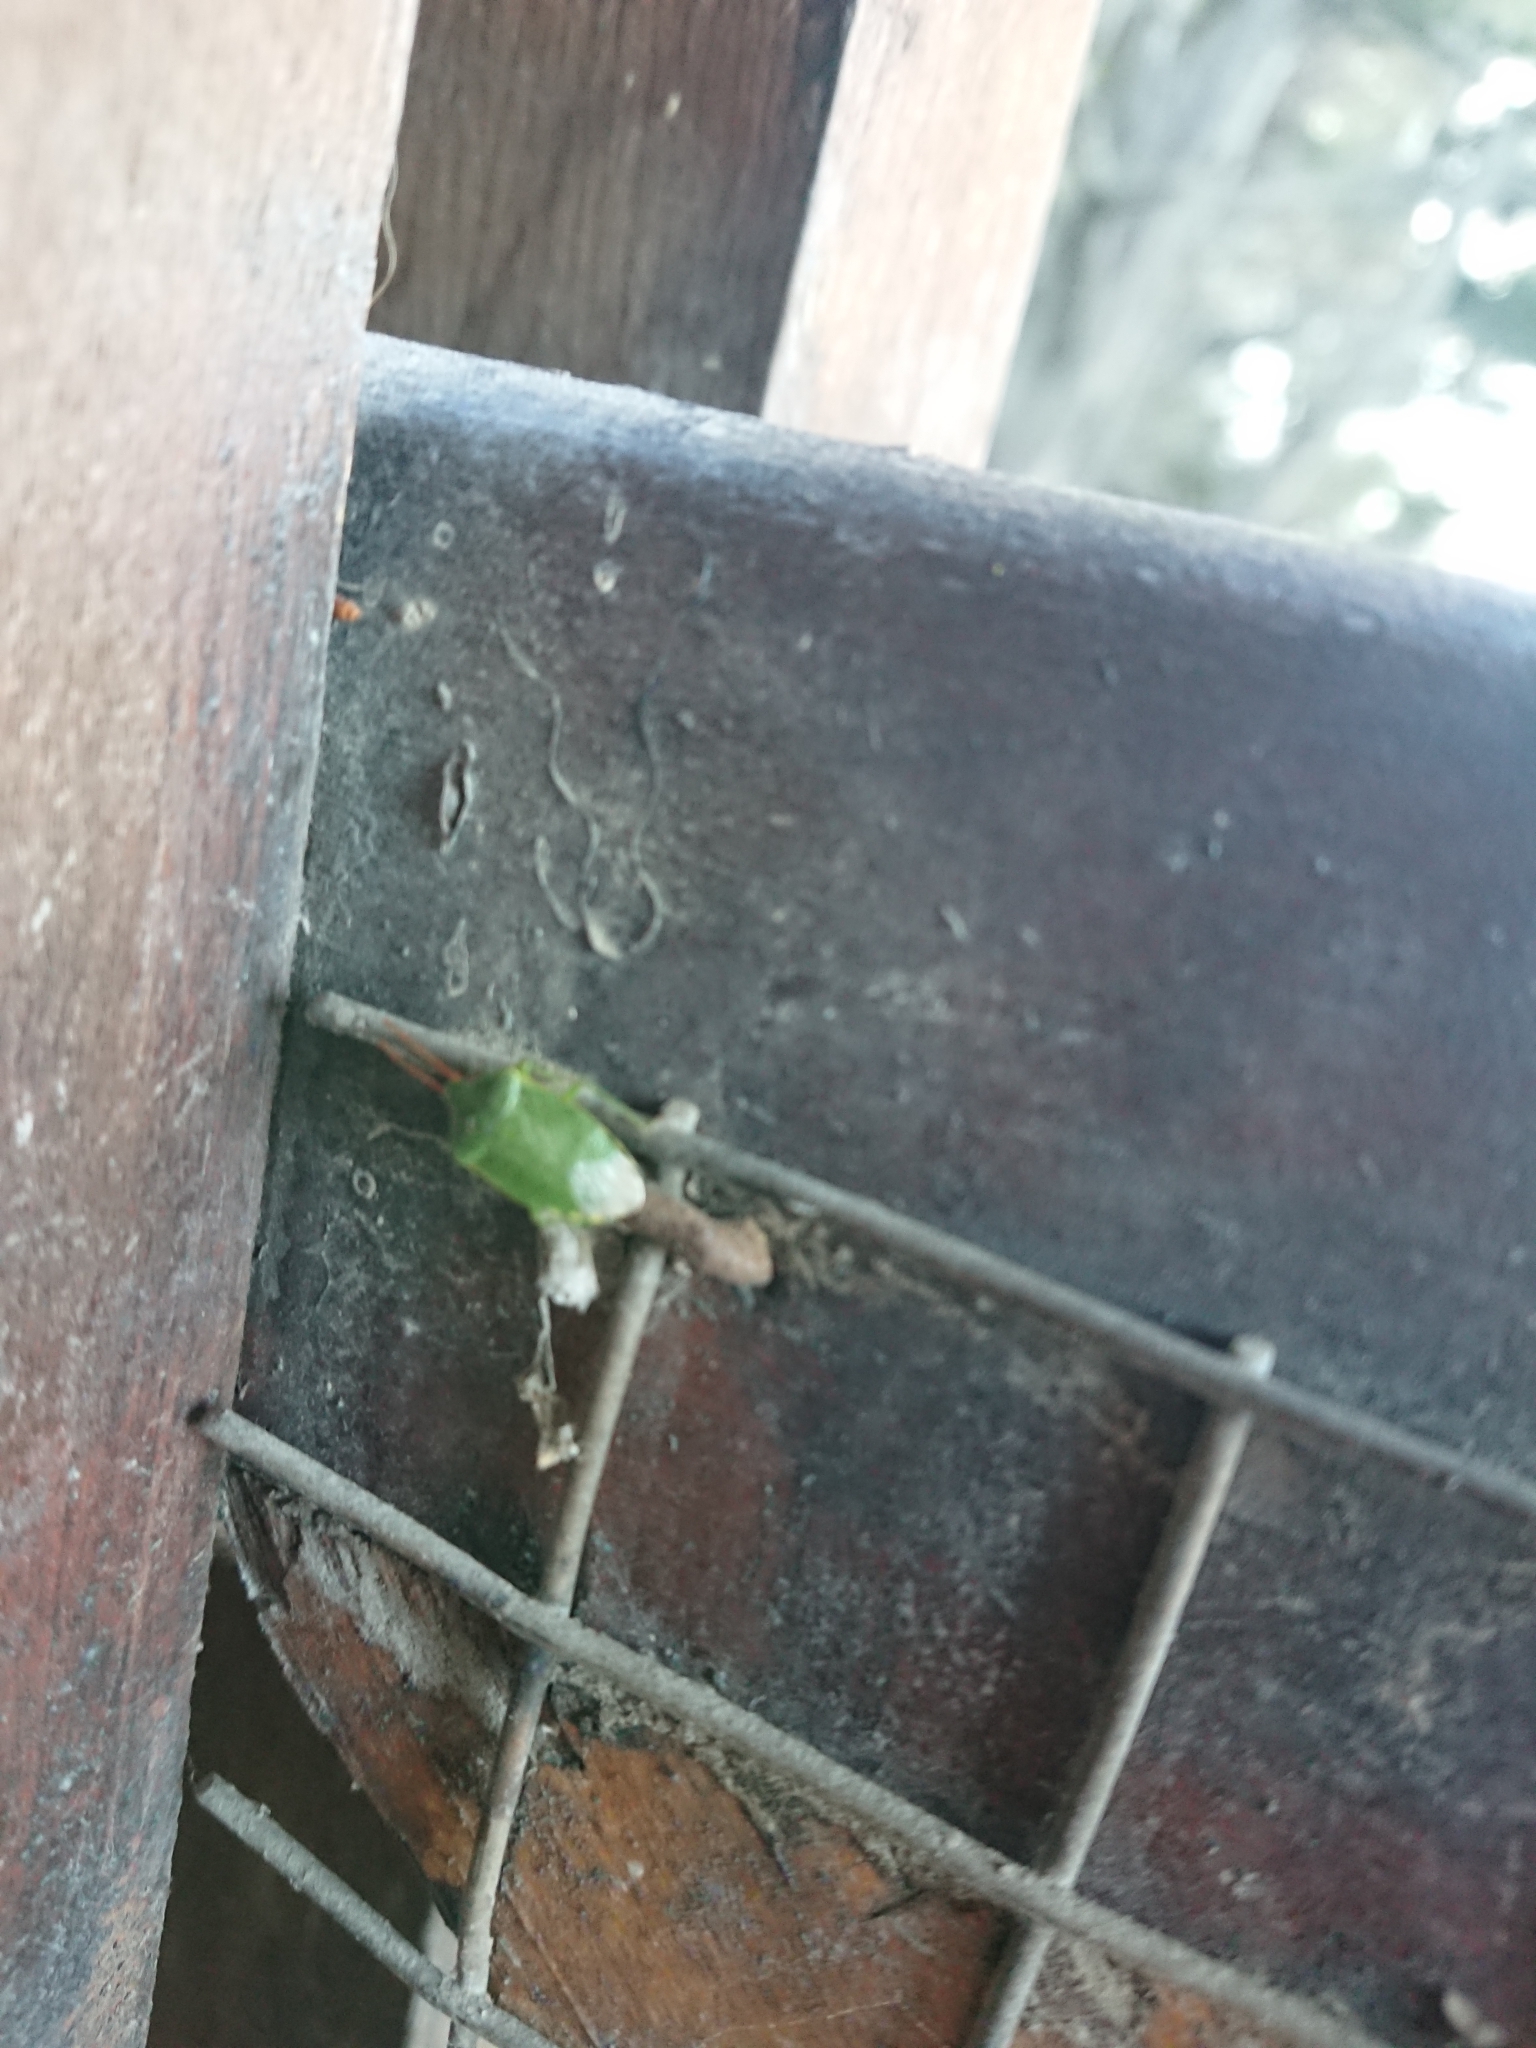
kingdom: Animalia
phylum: Arthropoda
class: Insecta
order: Hemiptera
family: Acanthosomatidae
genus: Sinopla
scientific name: Sinopla perpunctatus
